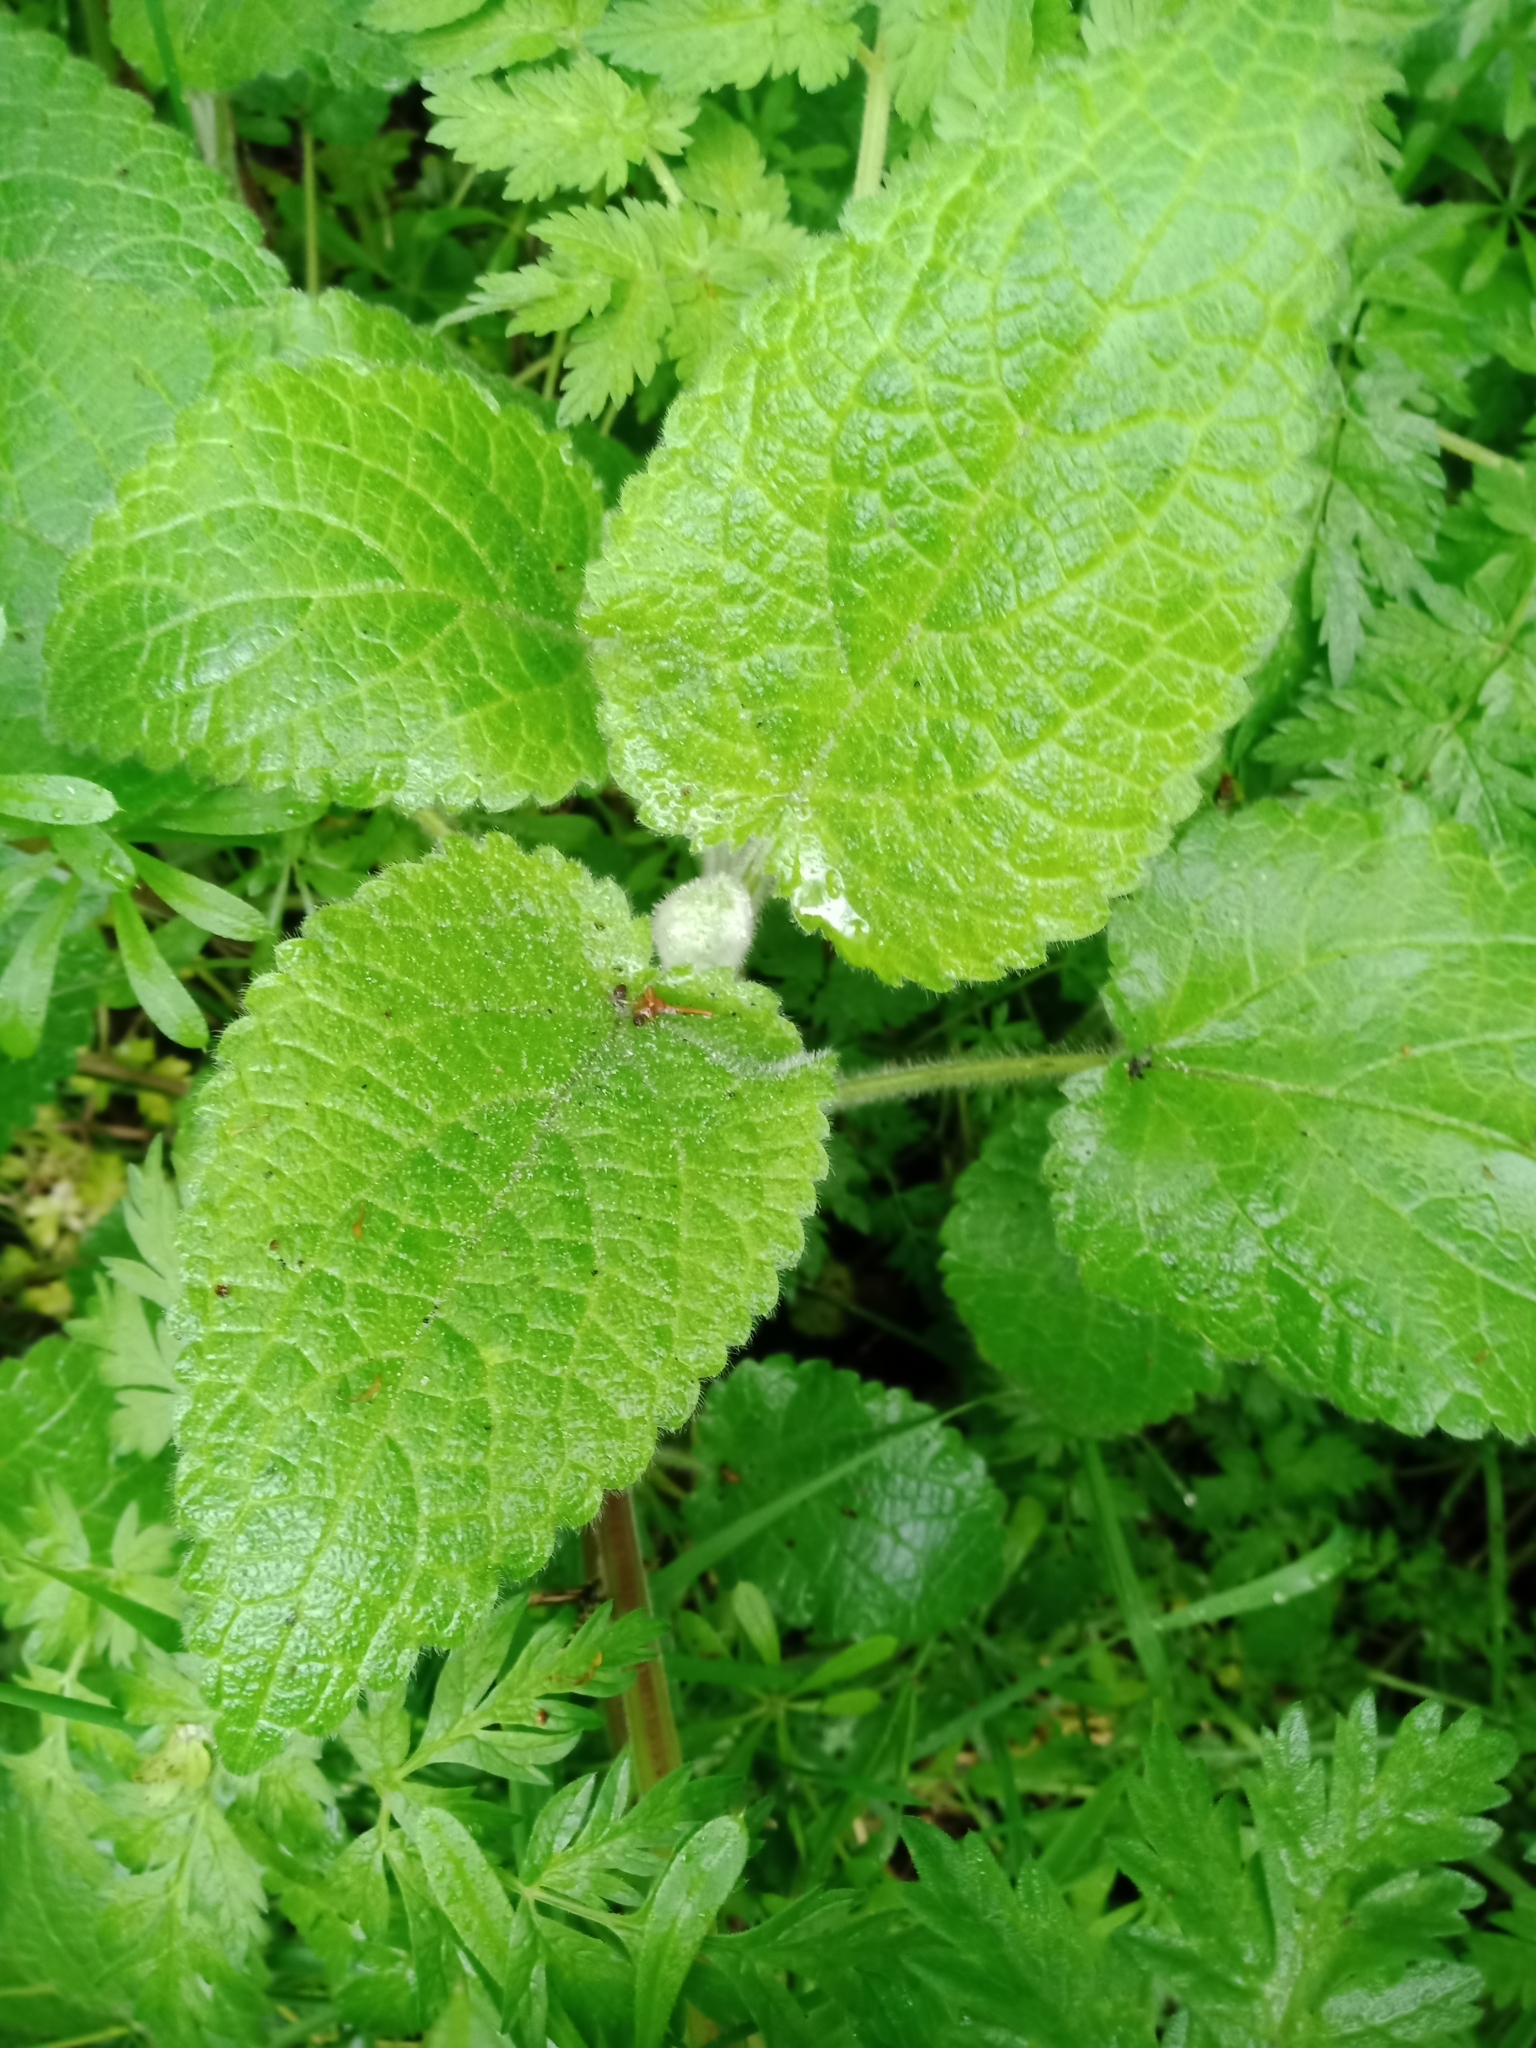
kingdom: Plantae
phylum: Tracheophyta
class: Magnoliopsida
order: Lamiales
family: Lamiaceae
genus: Stachys
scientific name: Stachys sylvatica
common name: Hedge woundwort
